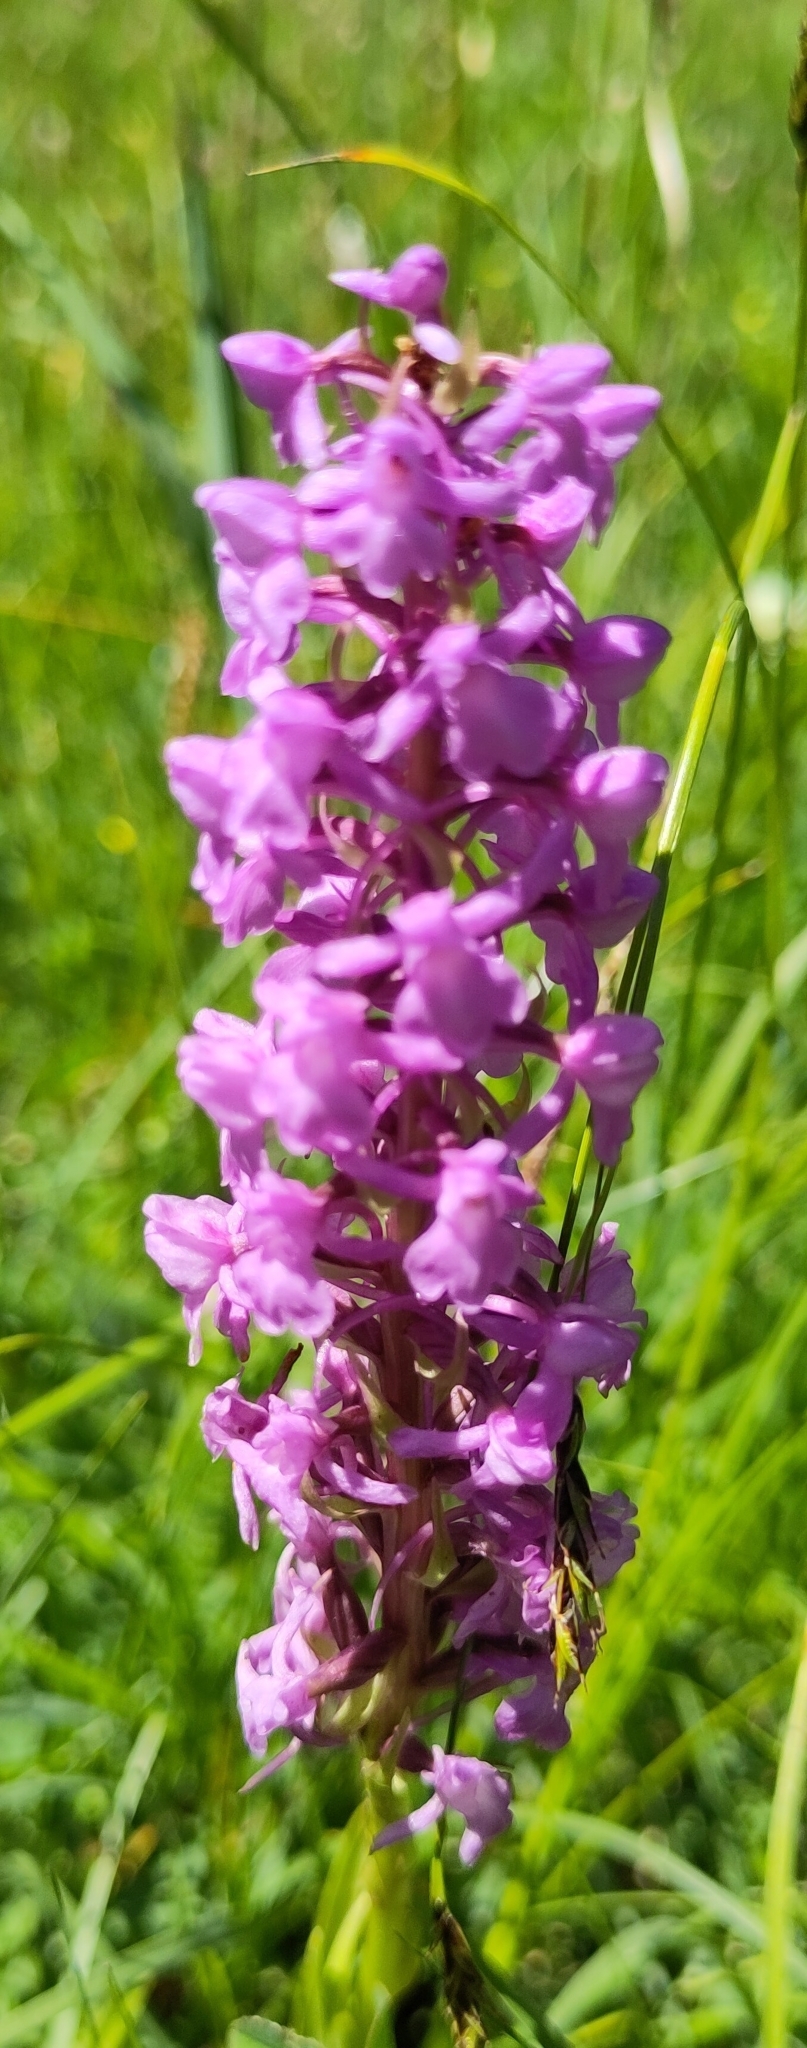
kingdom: Plantae
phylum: Tracheophyta
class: Liliopsida
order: Asparagales
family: Orchidaceae
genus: Gymnadenia
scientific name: Gymnadenia conopsea
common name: Fragrant orchid
